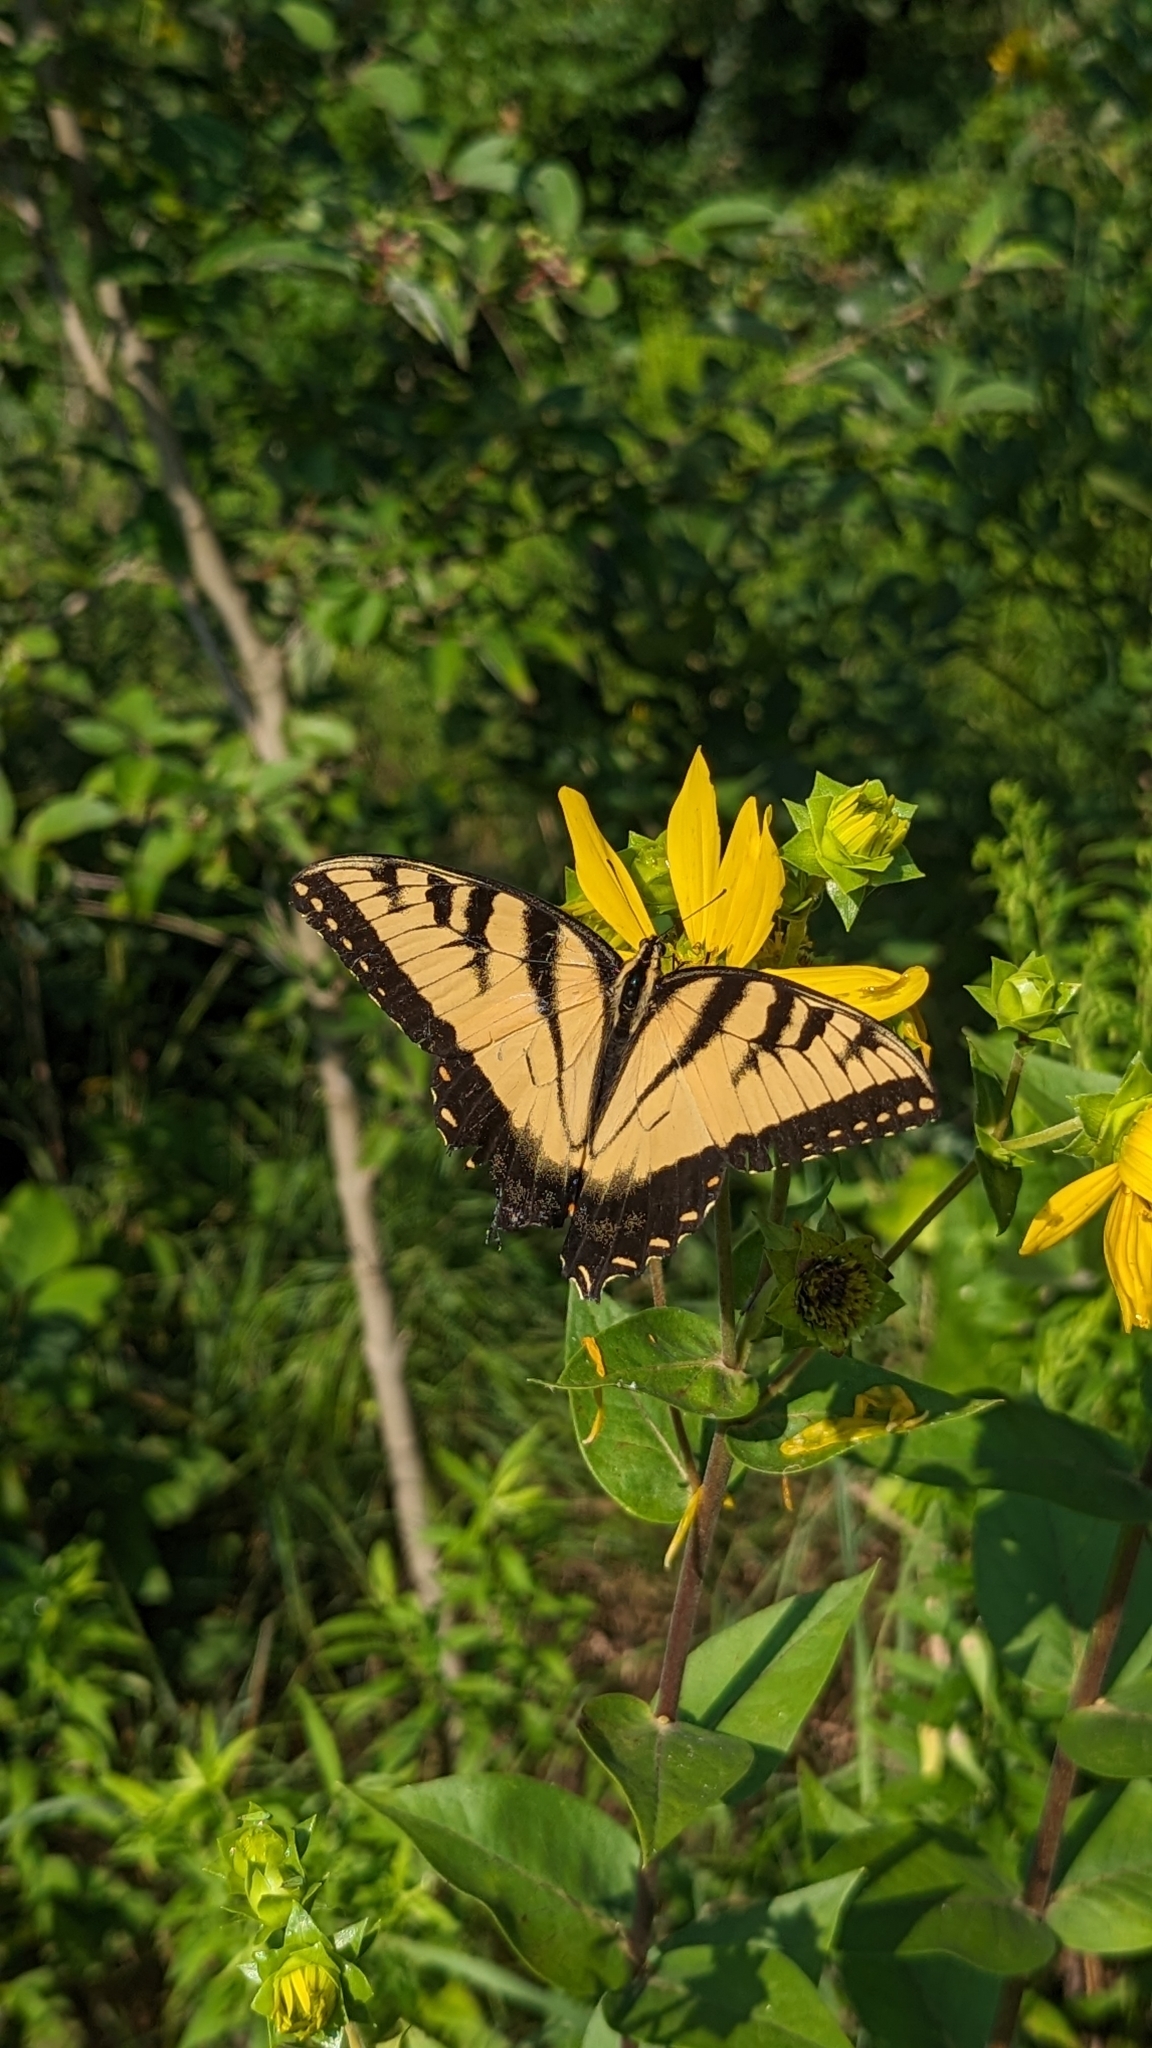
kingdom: Animalia
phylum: Arthropoda
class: Insecta
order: Lepidoptera
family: Papilionidae
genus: Papilio
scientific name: Papilio glaucus
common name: Tiger swallowtail
